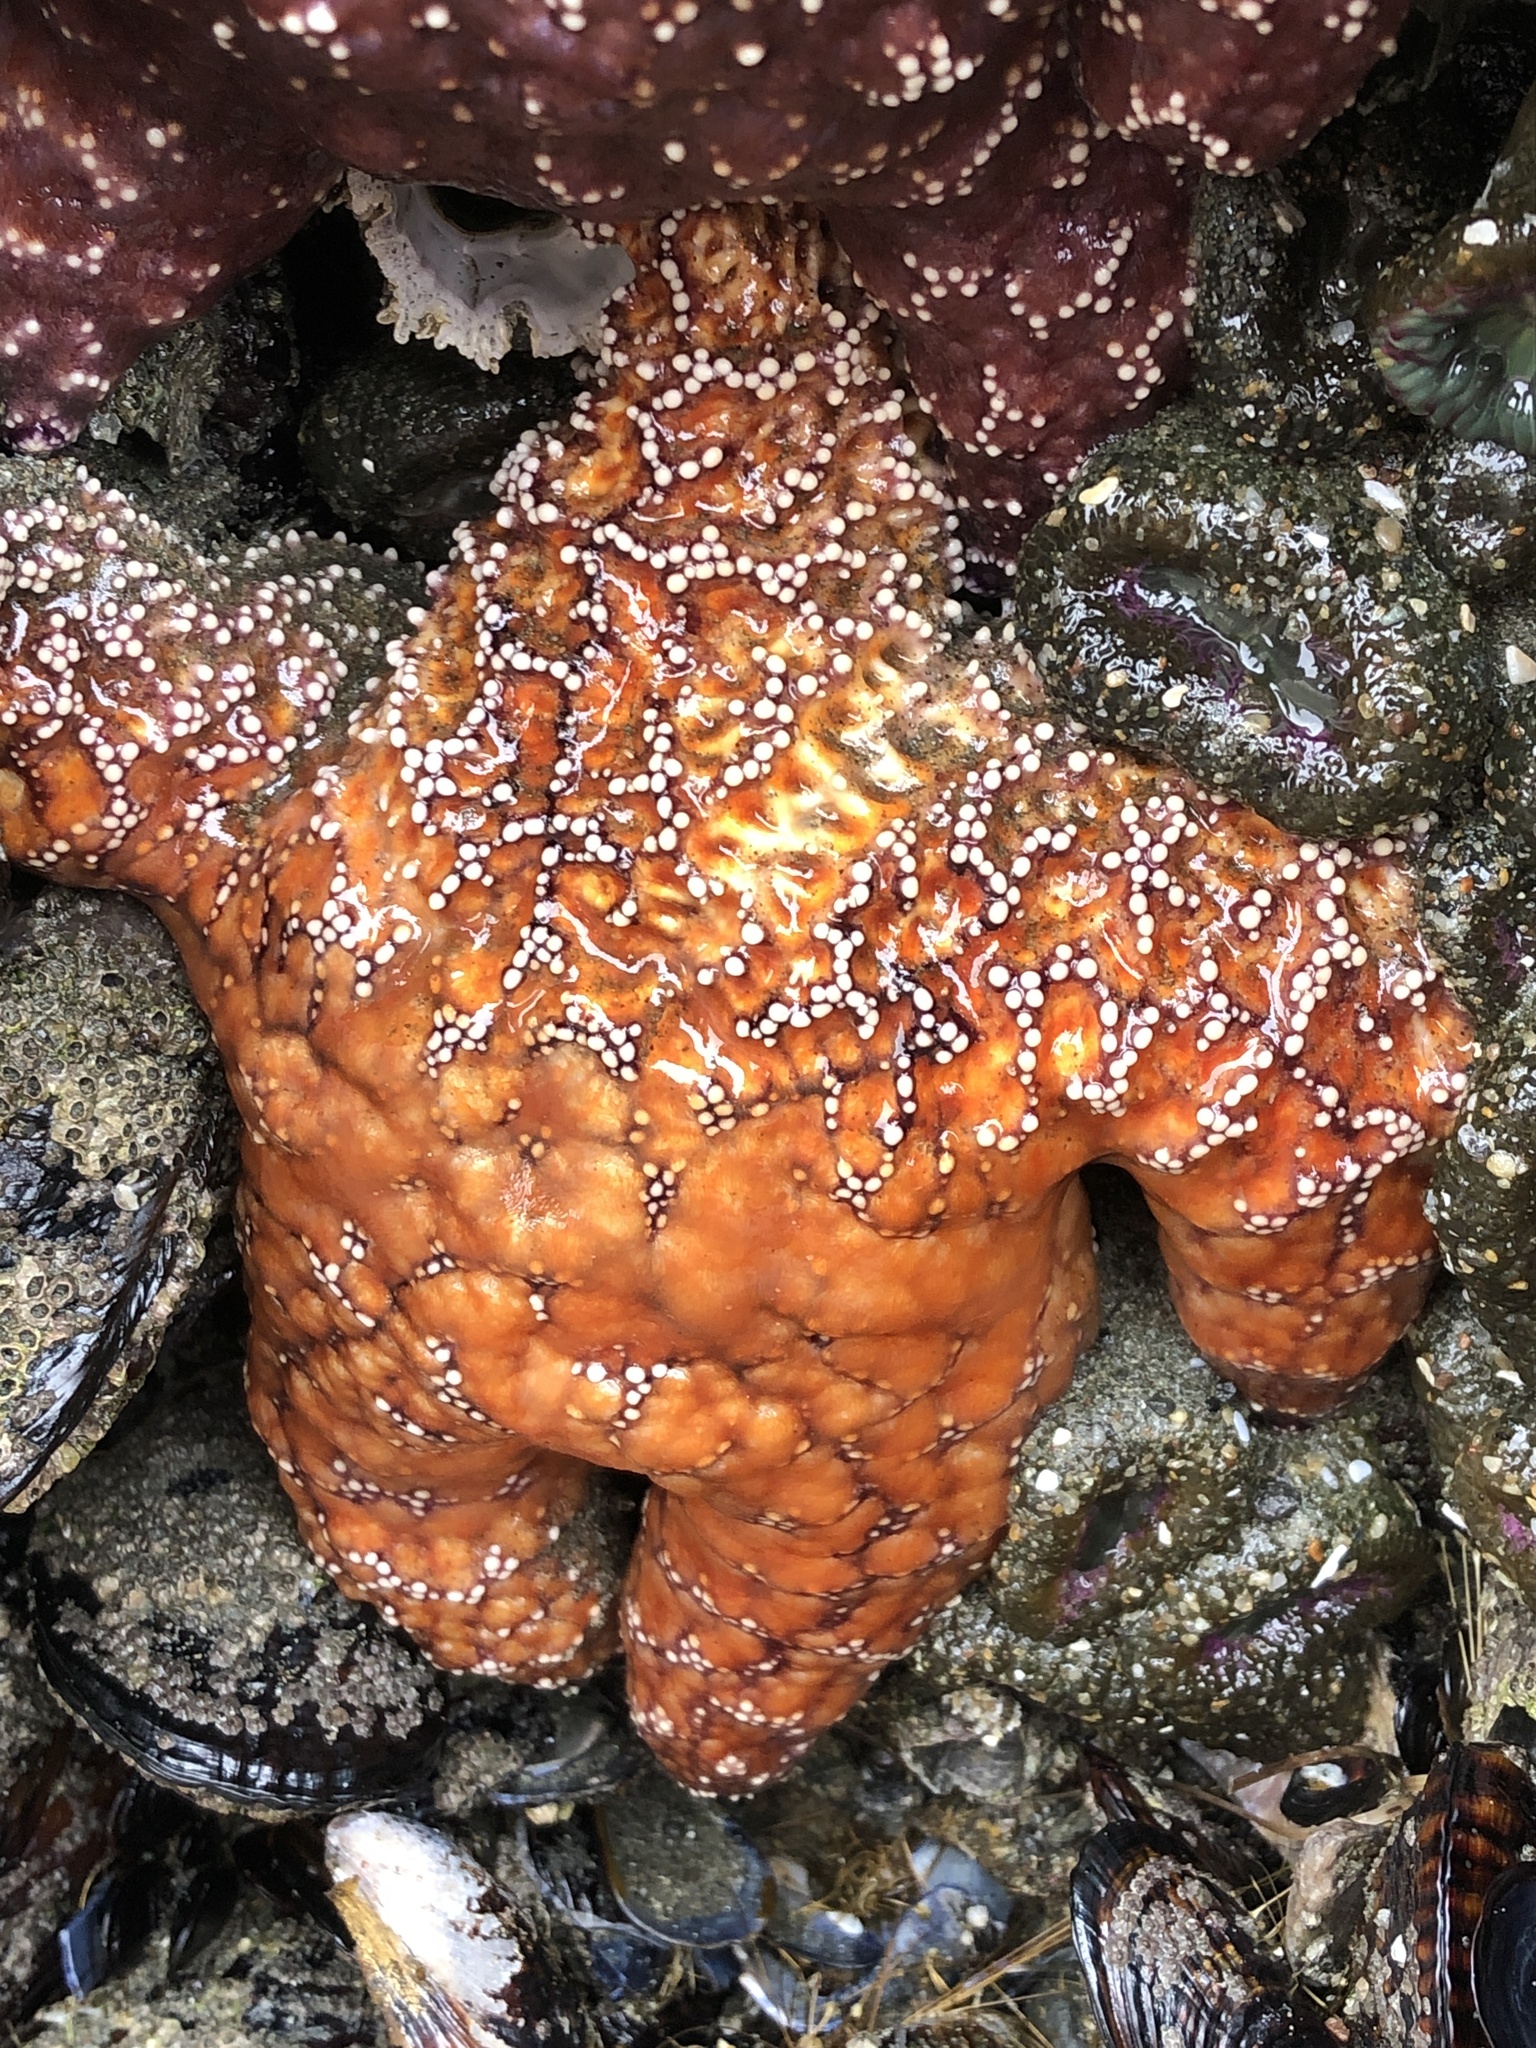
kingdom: Animalia
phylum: Echinodermata
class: Asteroidea
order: Forcipulatida
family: Asteriidae
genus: Pisaster
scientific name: Pisaster ochraceus
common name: Ochre stars
